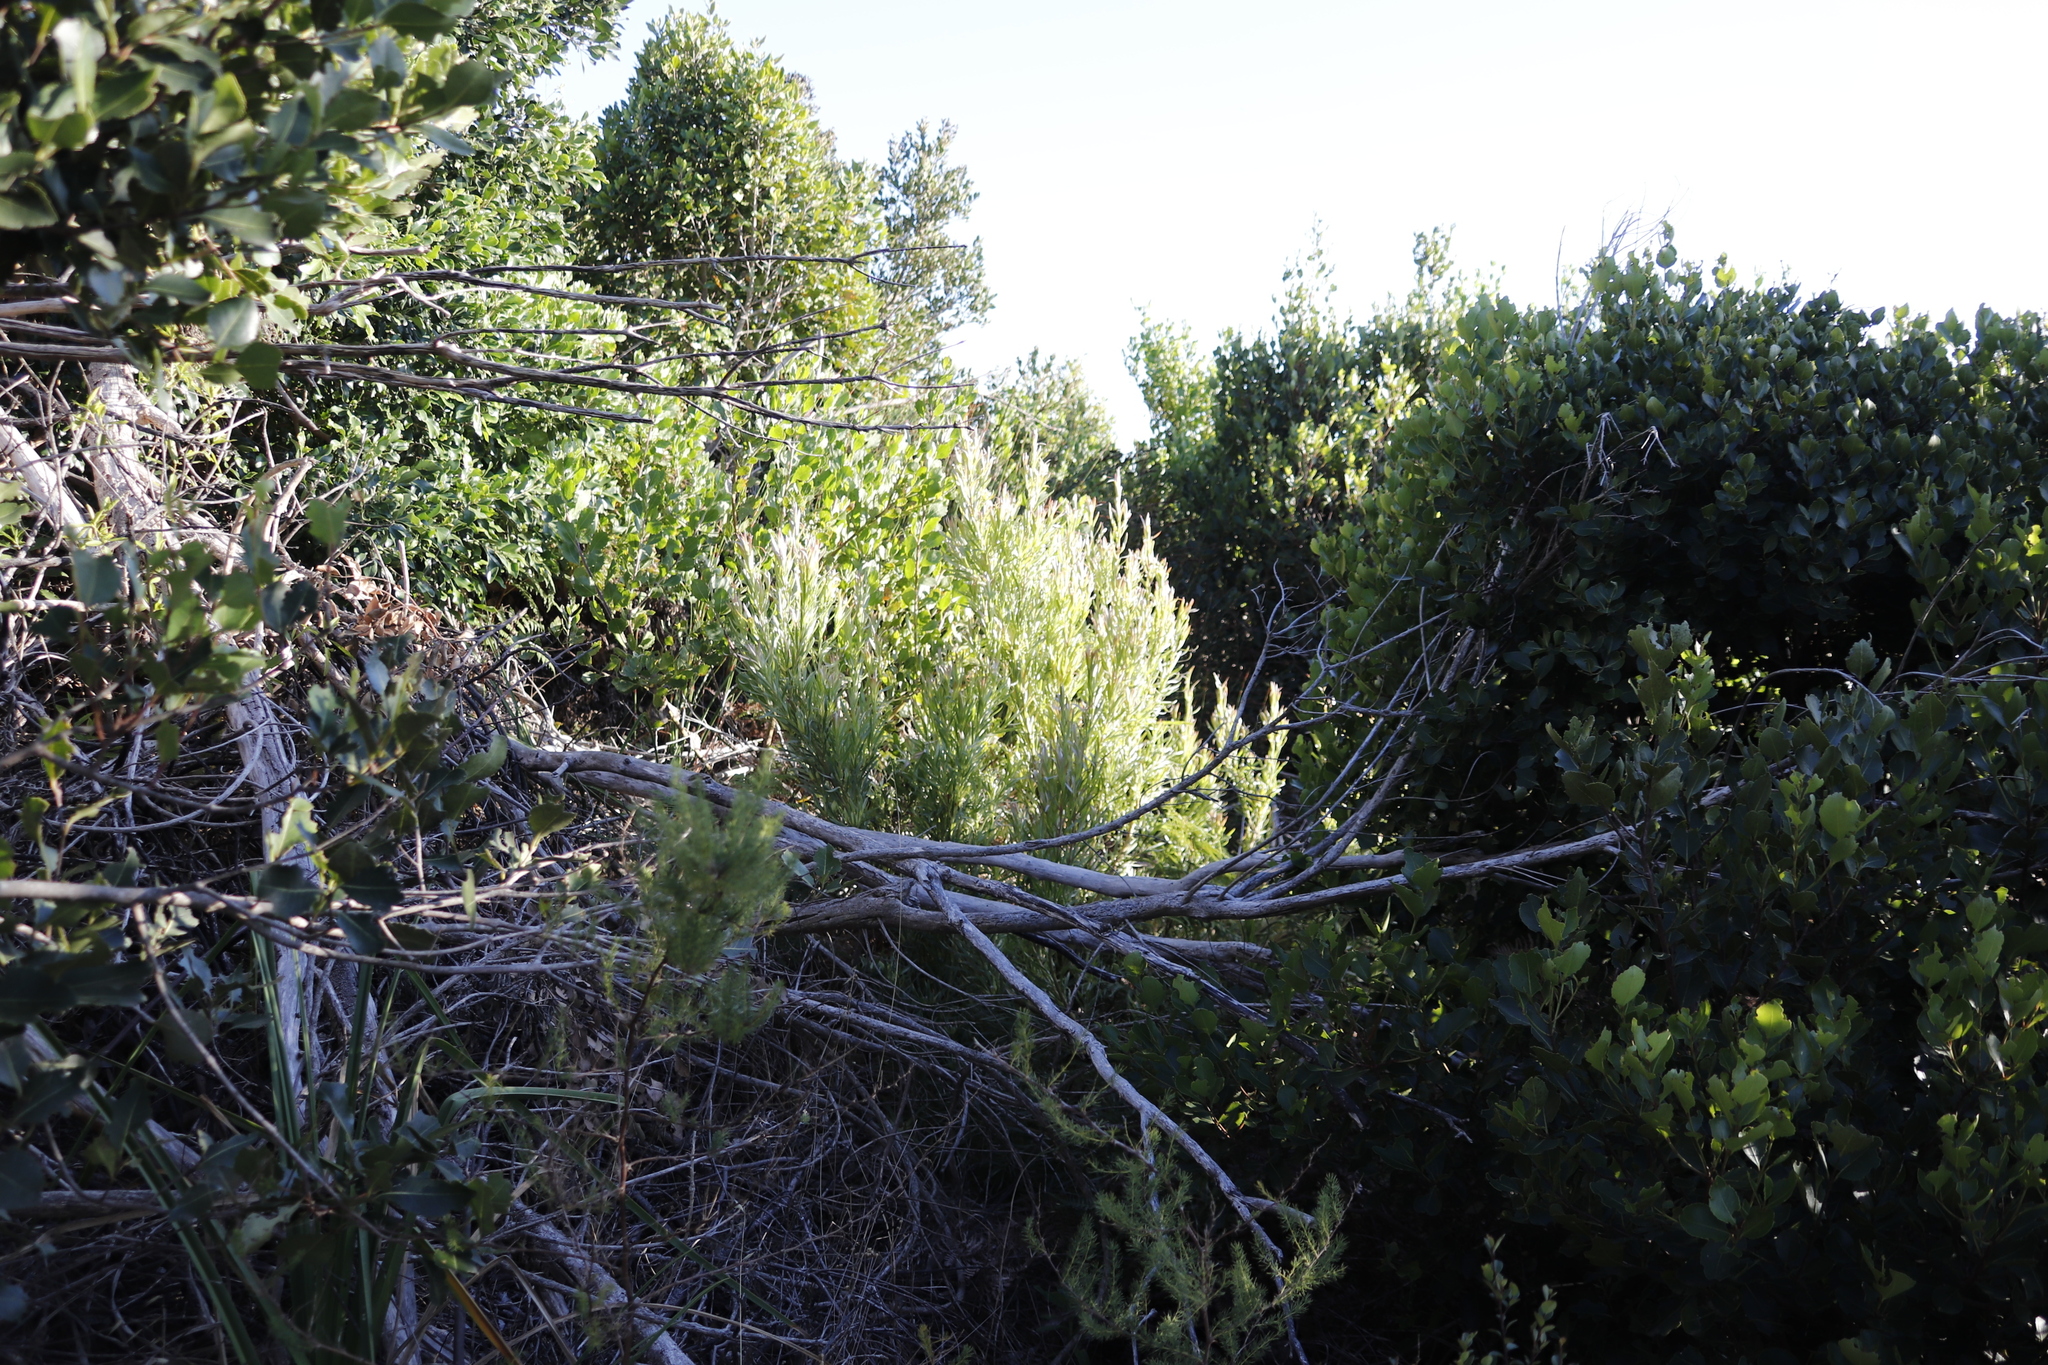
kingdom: Plantae
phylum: Tracheophyta
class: Magnoliopsida
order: Proteales
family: Proteaceae
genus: Leucadendron
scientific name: Leucadendron xanthoconus
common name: Sickle-leaf conebush
